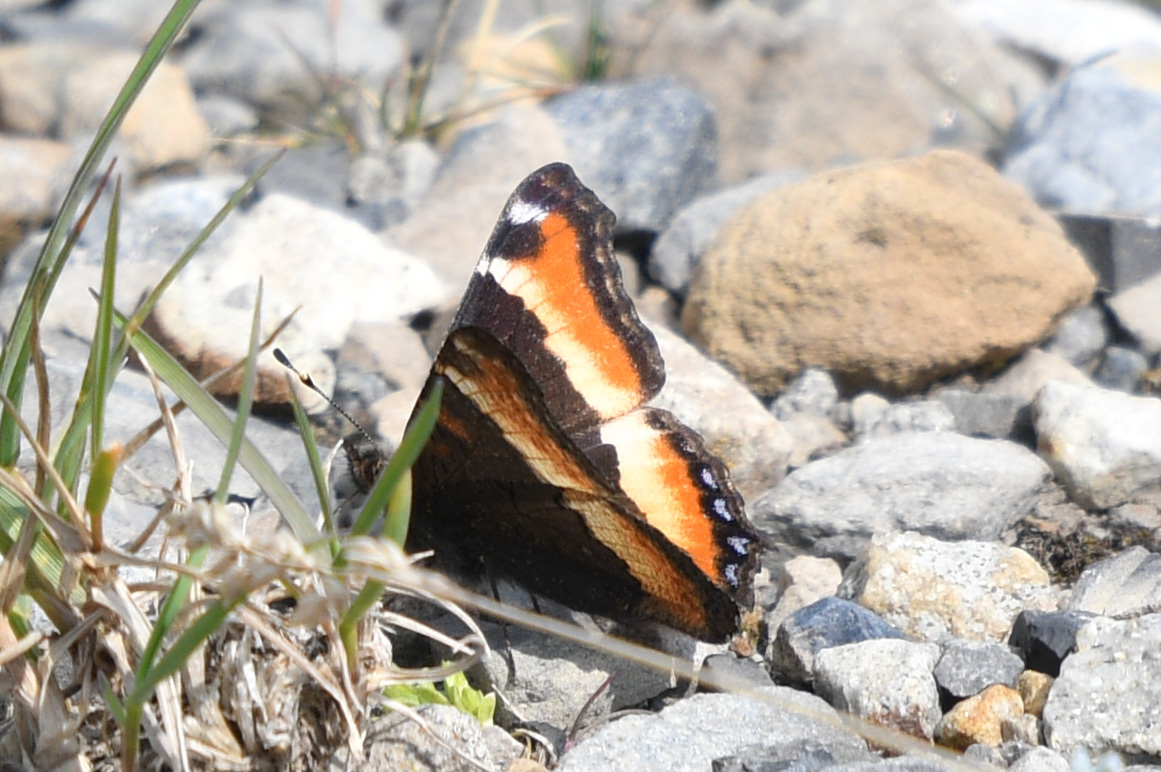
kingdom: Animalia
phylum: Arthropoda
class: Insecta
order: Lepidoptera
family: Nymphalidae
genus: Aglais
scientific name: Aglais milberti
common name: Milbert's tortoiseshell
